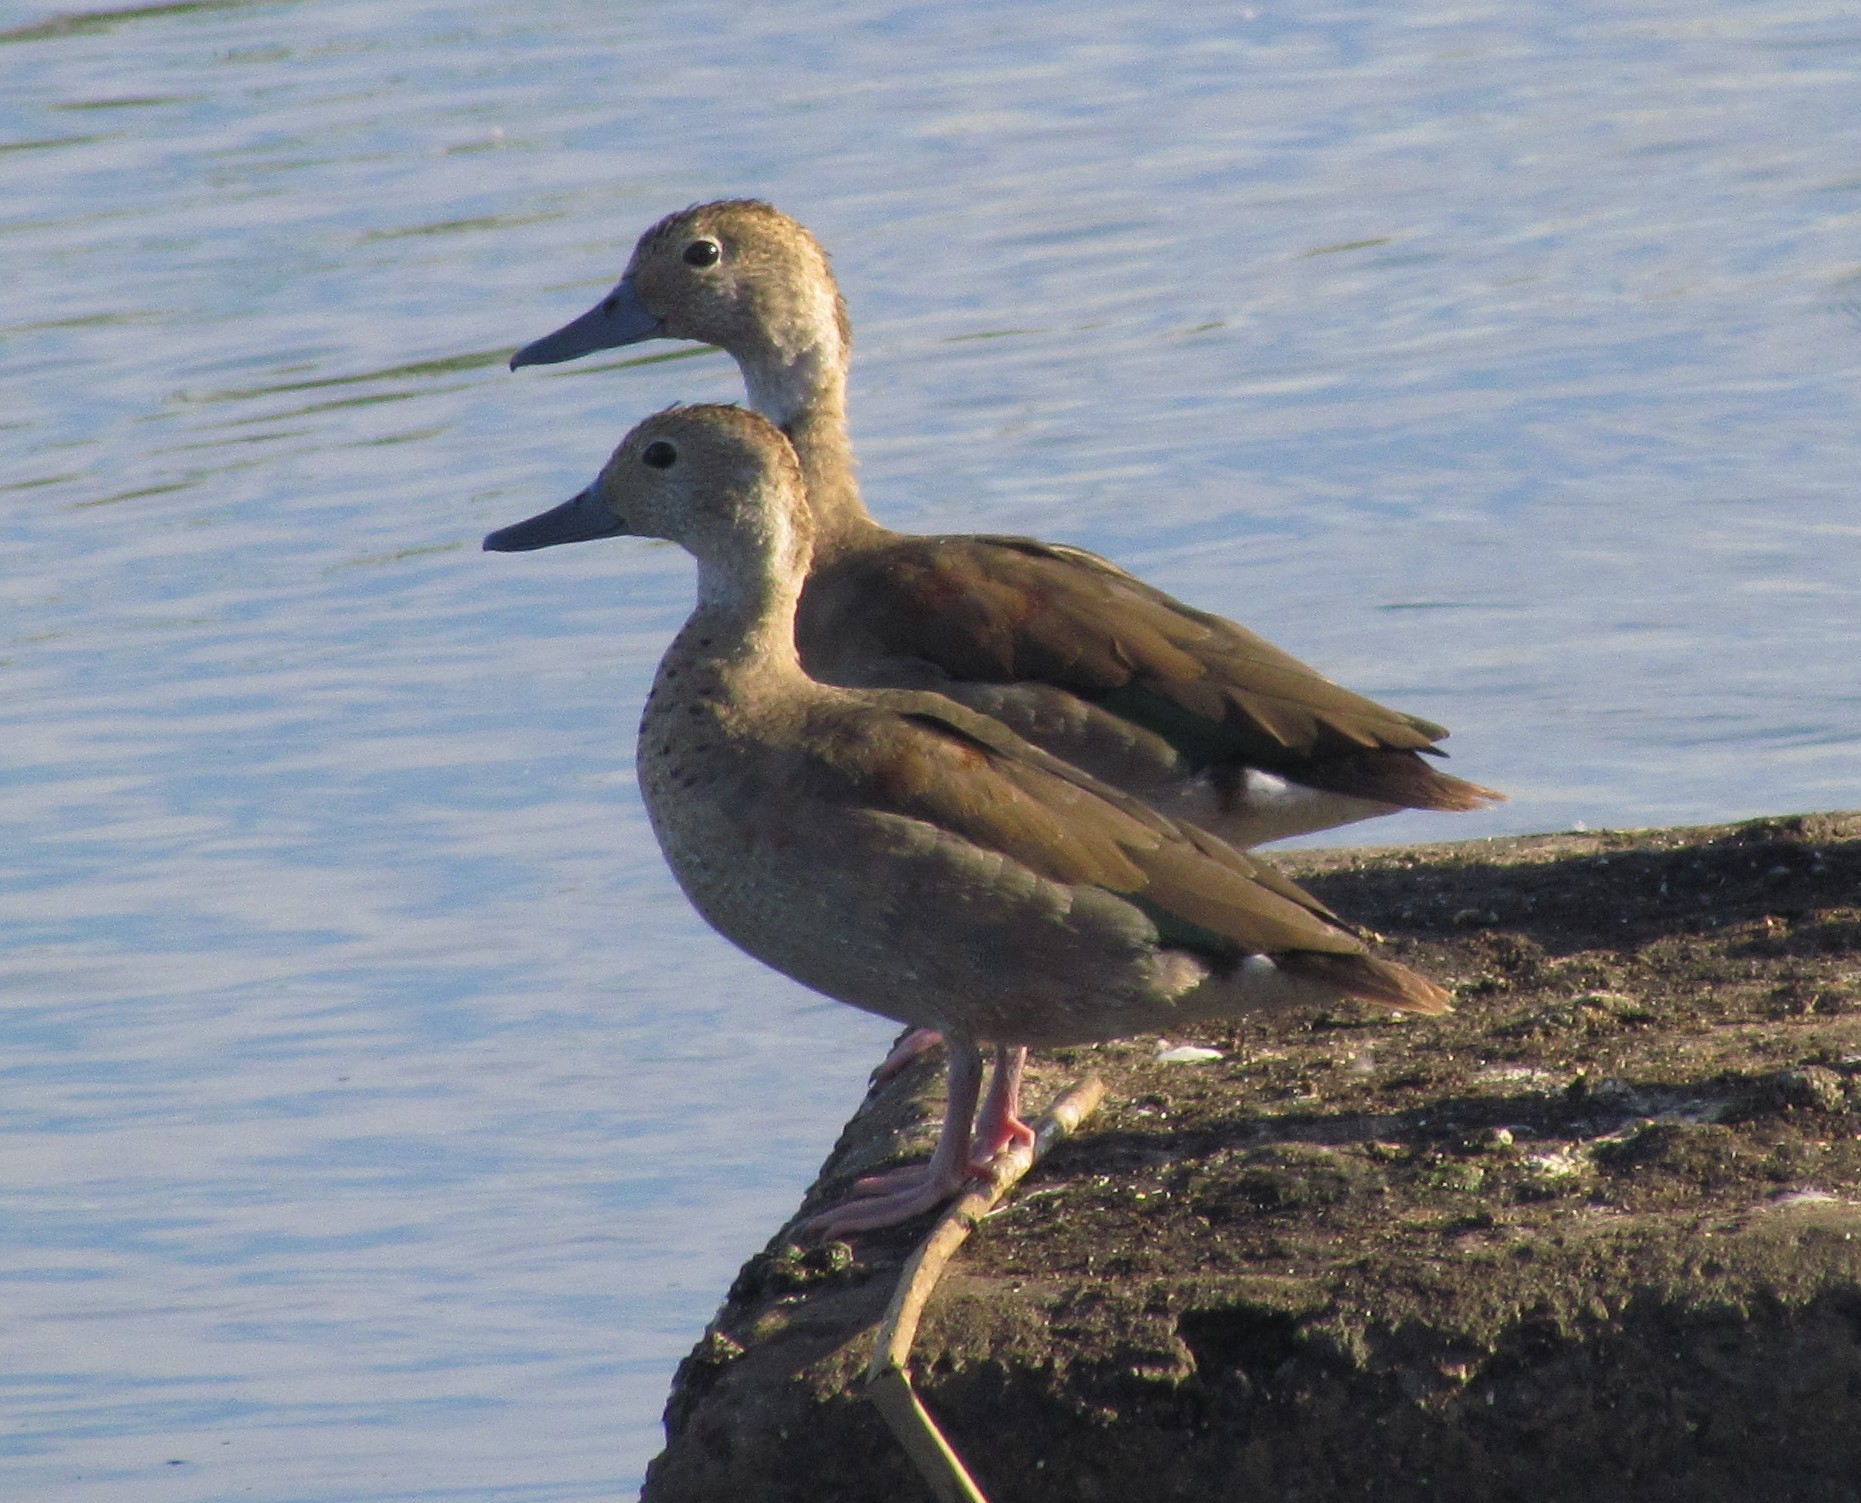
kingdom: Animalia
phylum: Chordata
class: Aves
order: Anseriformes
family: Anatidae
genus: Callonetta
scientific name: Callonetta leucophrys
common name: Ringed teal
